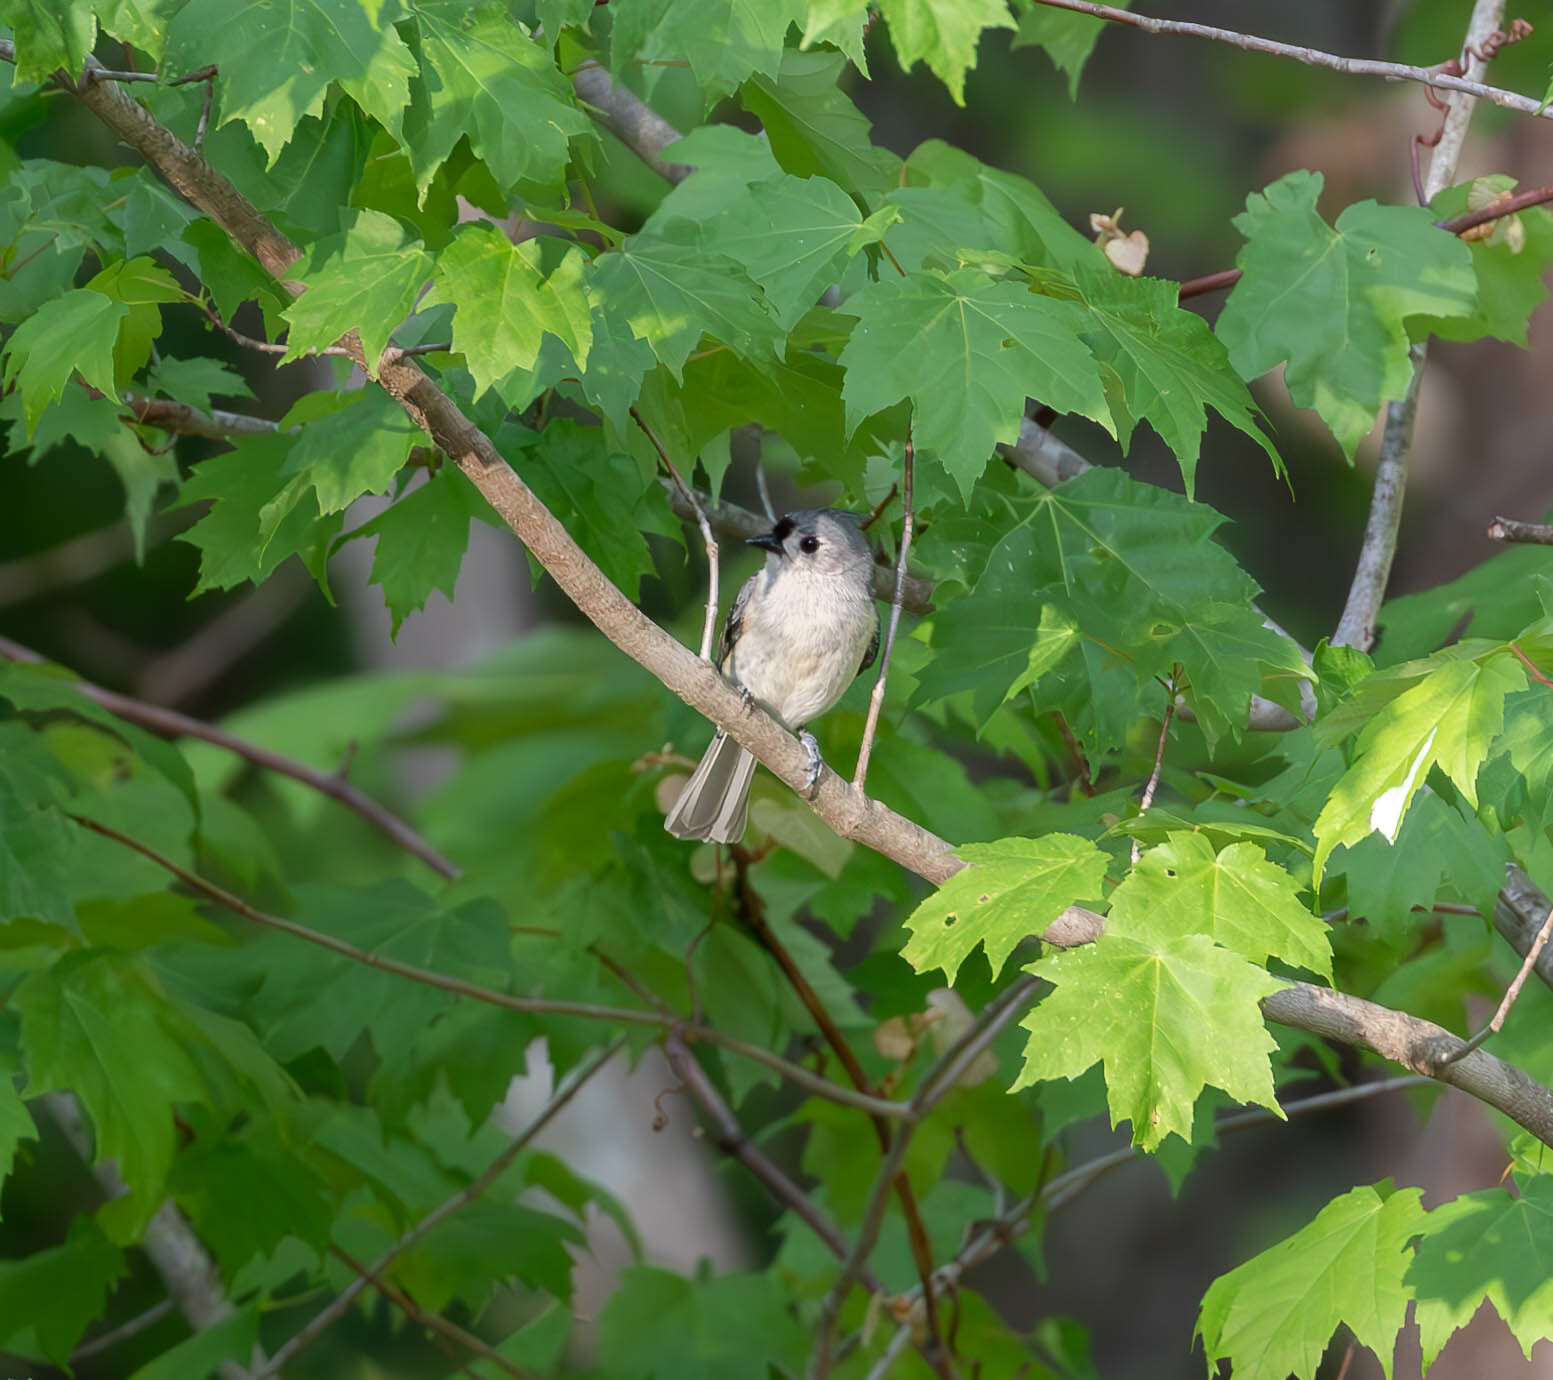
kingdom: Animalia
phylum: Chordata
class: Aves
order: Passeriformes
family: Paridae
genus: Baeolophus
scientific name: Baeolophus bicolor
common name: Tufted titmouse
